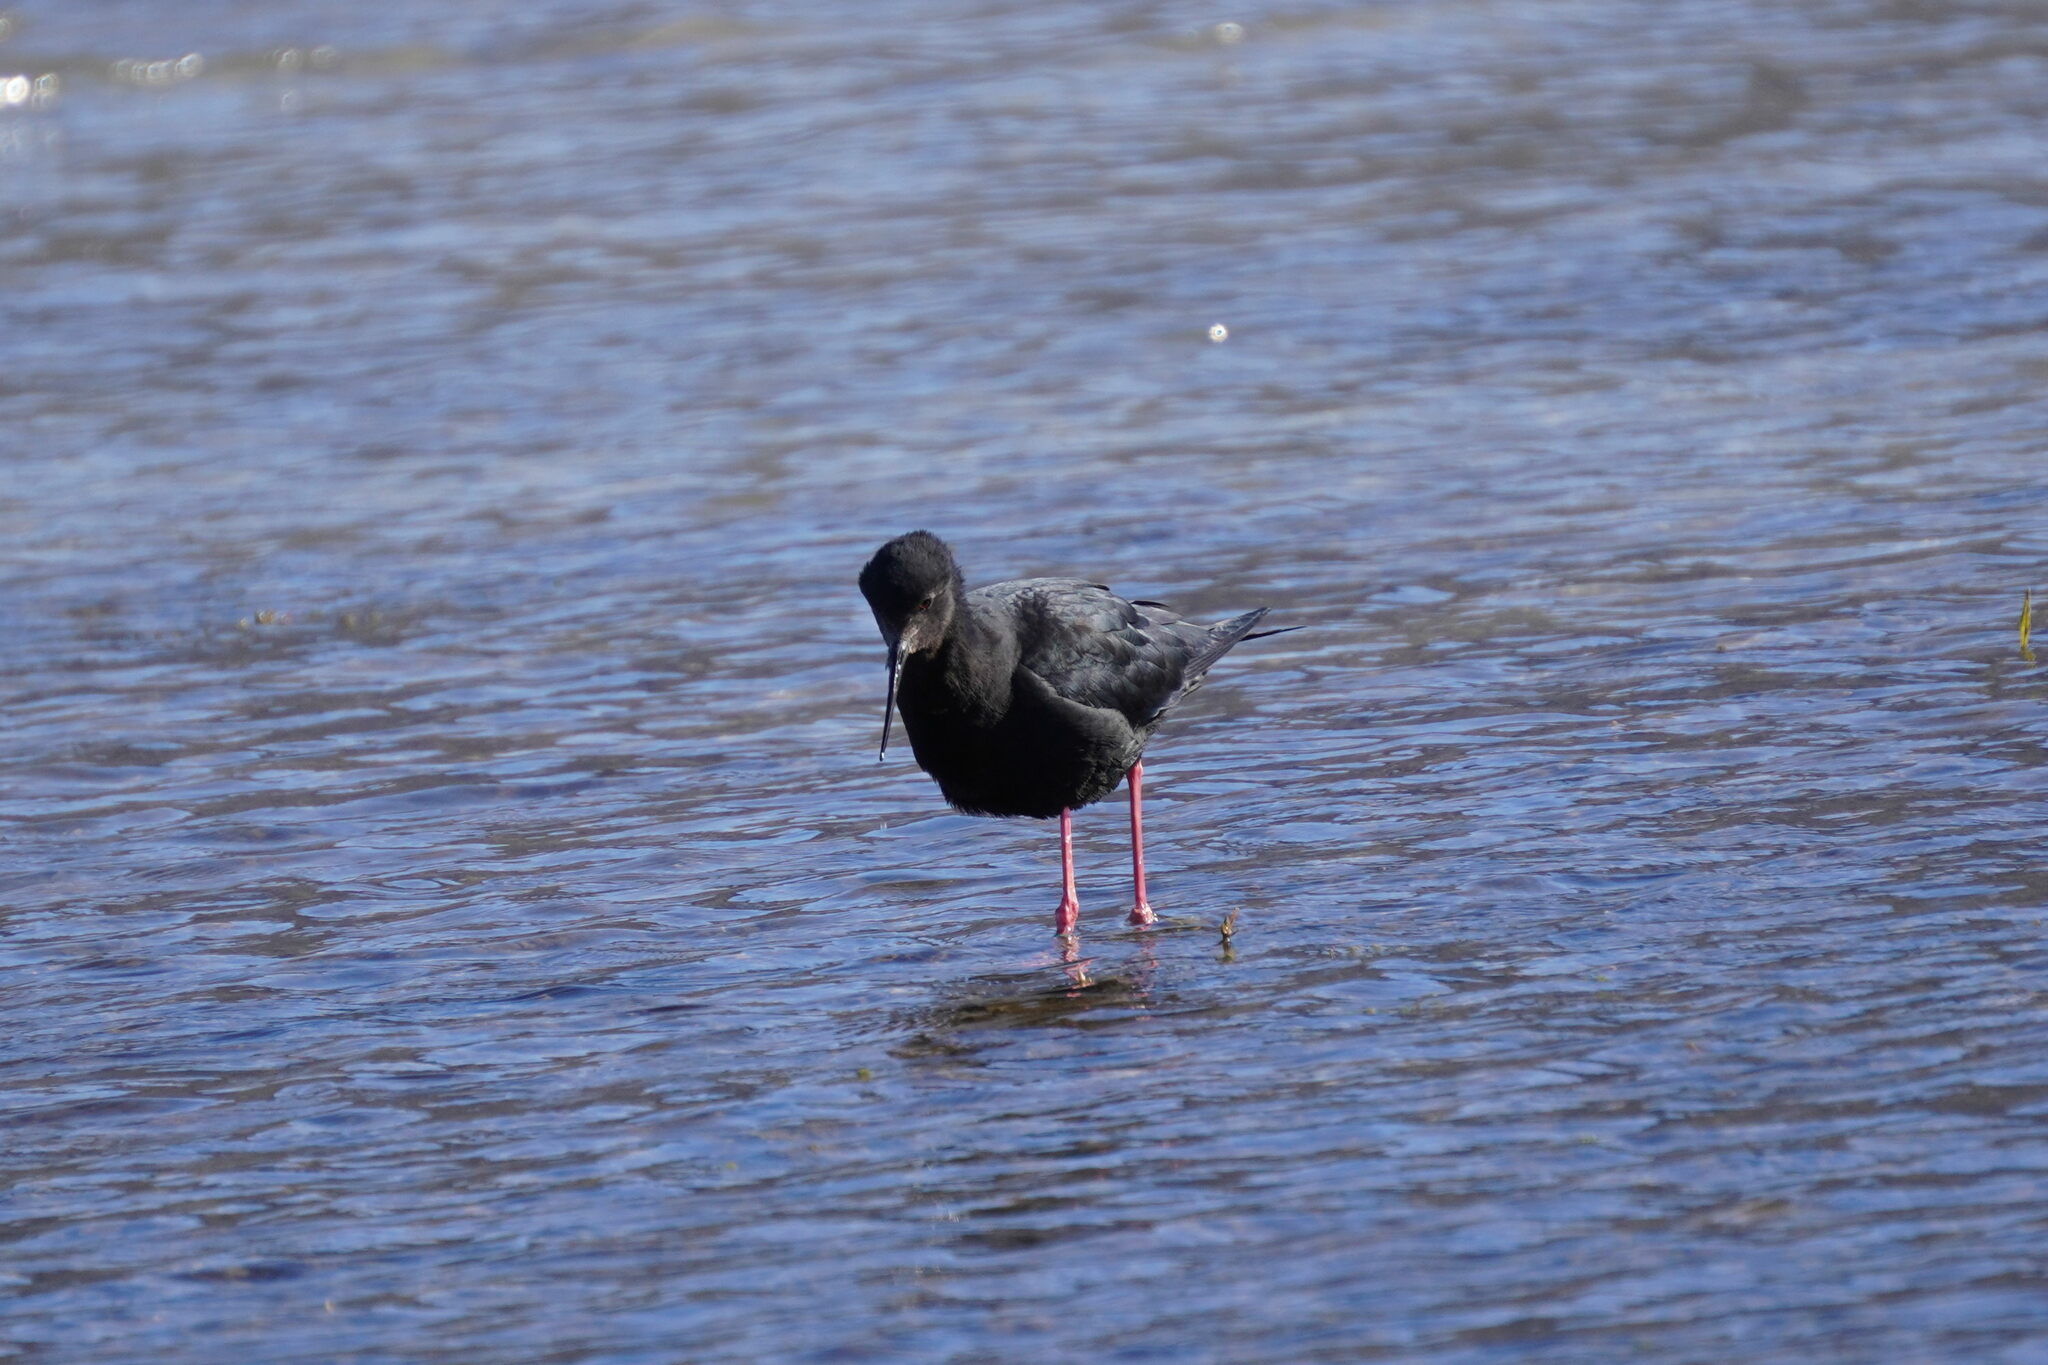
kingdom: Animalia
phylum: Chordata
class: Aves
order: Charadriiformes
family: Recurvirostridae
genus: Himantopus
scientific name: Himantopus novaezelandiae
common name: Black stilt
